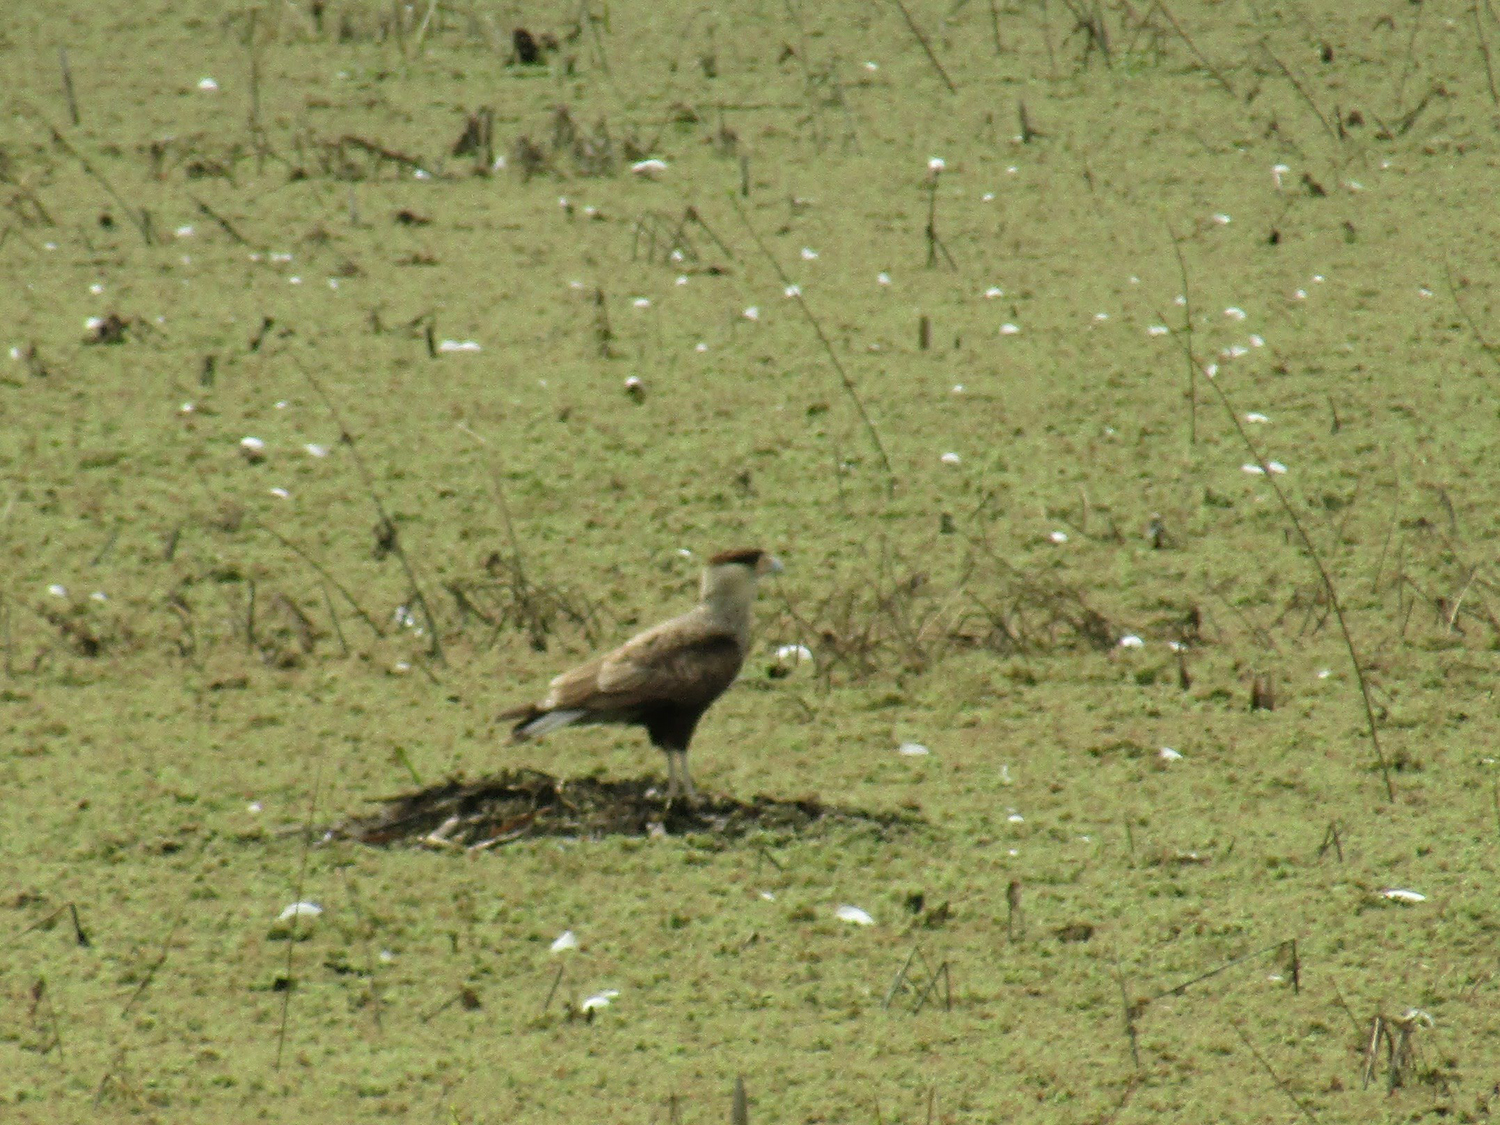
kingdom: Animalia
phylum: Chordata
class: Aves
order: Falconiformes
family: Falconidae
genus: Caracara
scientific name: Caracara plancus
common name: Southern caracara
